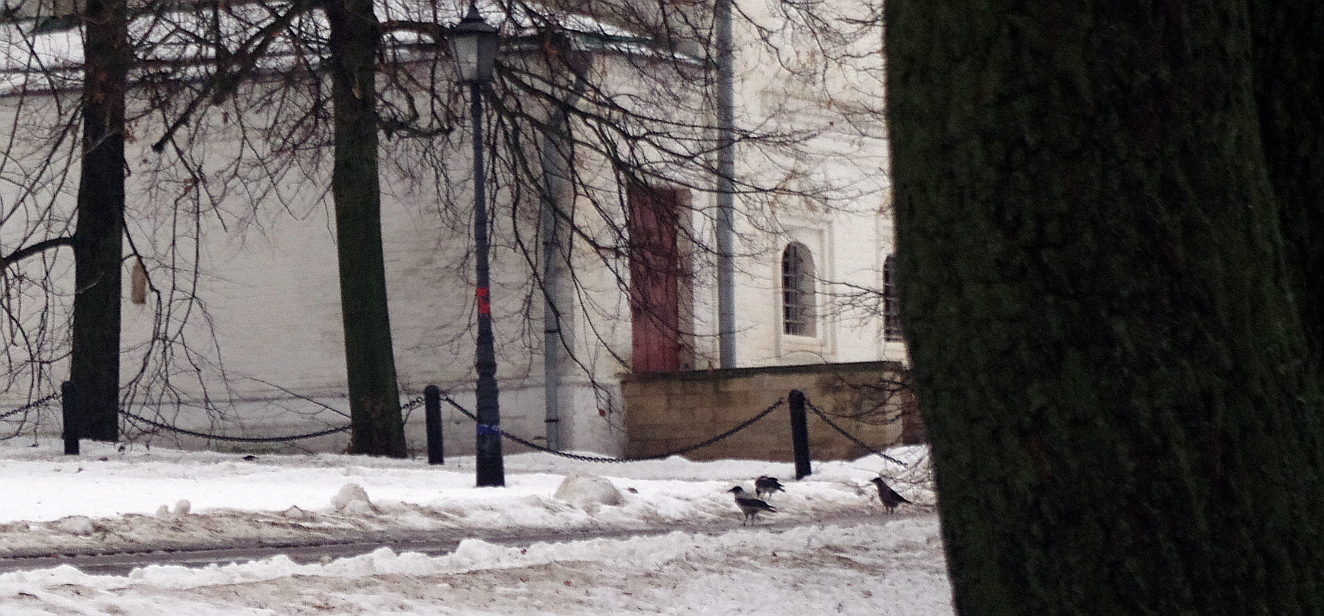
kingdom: Animalia
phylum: Chordata
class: Aves
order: Passeriformes
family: Corvidae
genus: Corvus
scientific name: Corvus cornix
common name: Hooded crow
